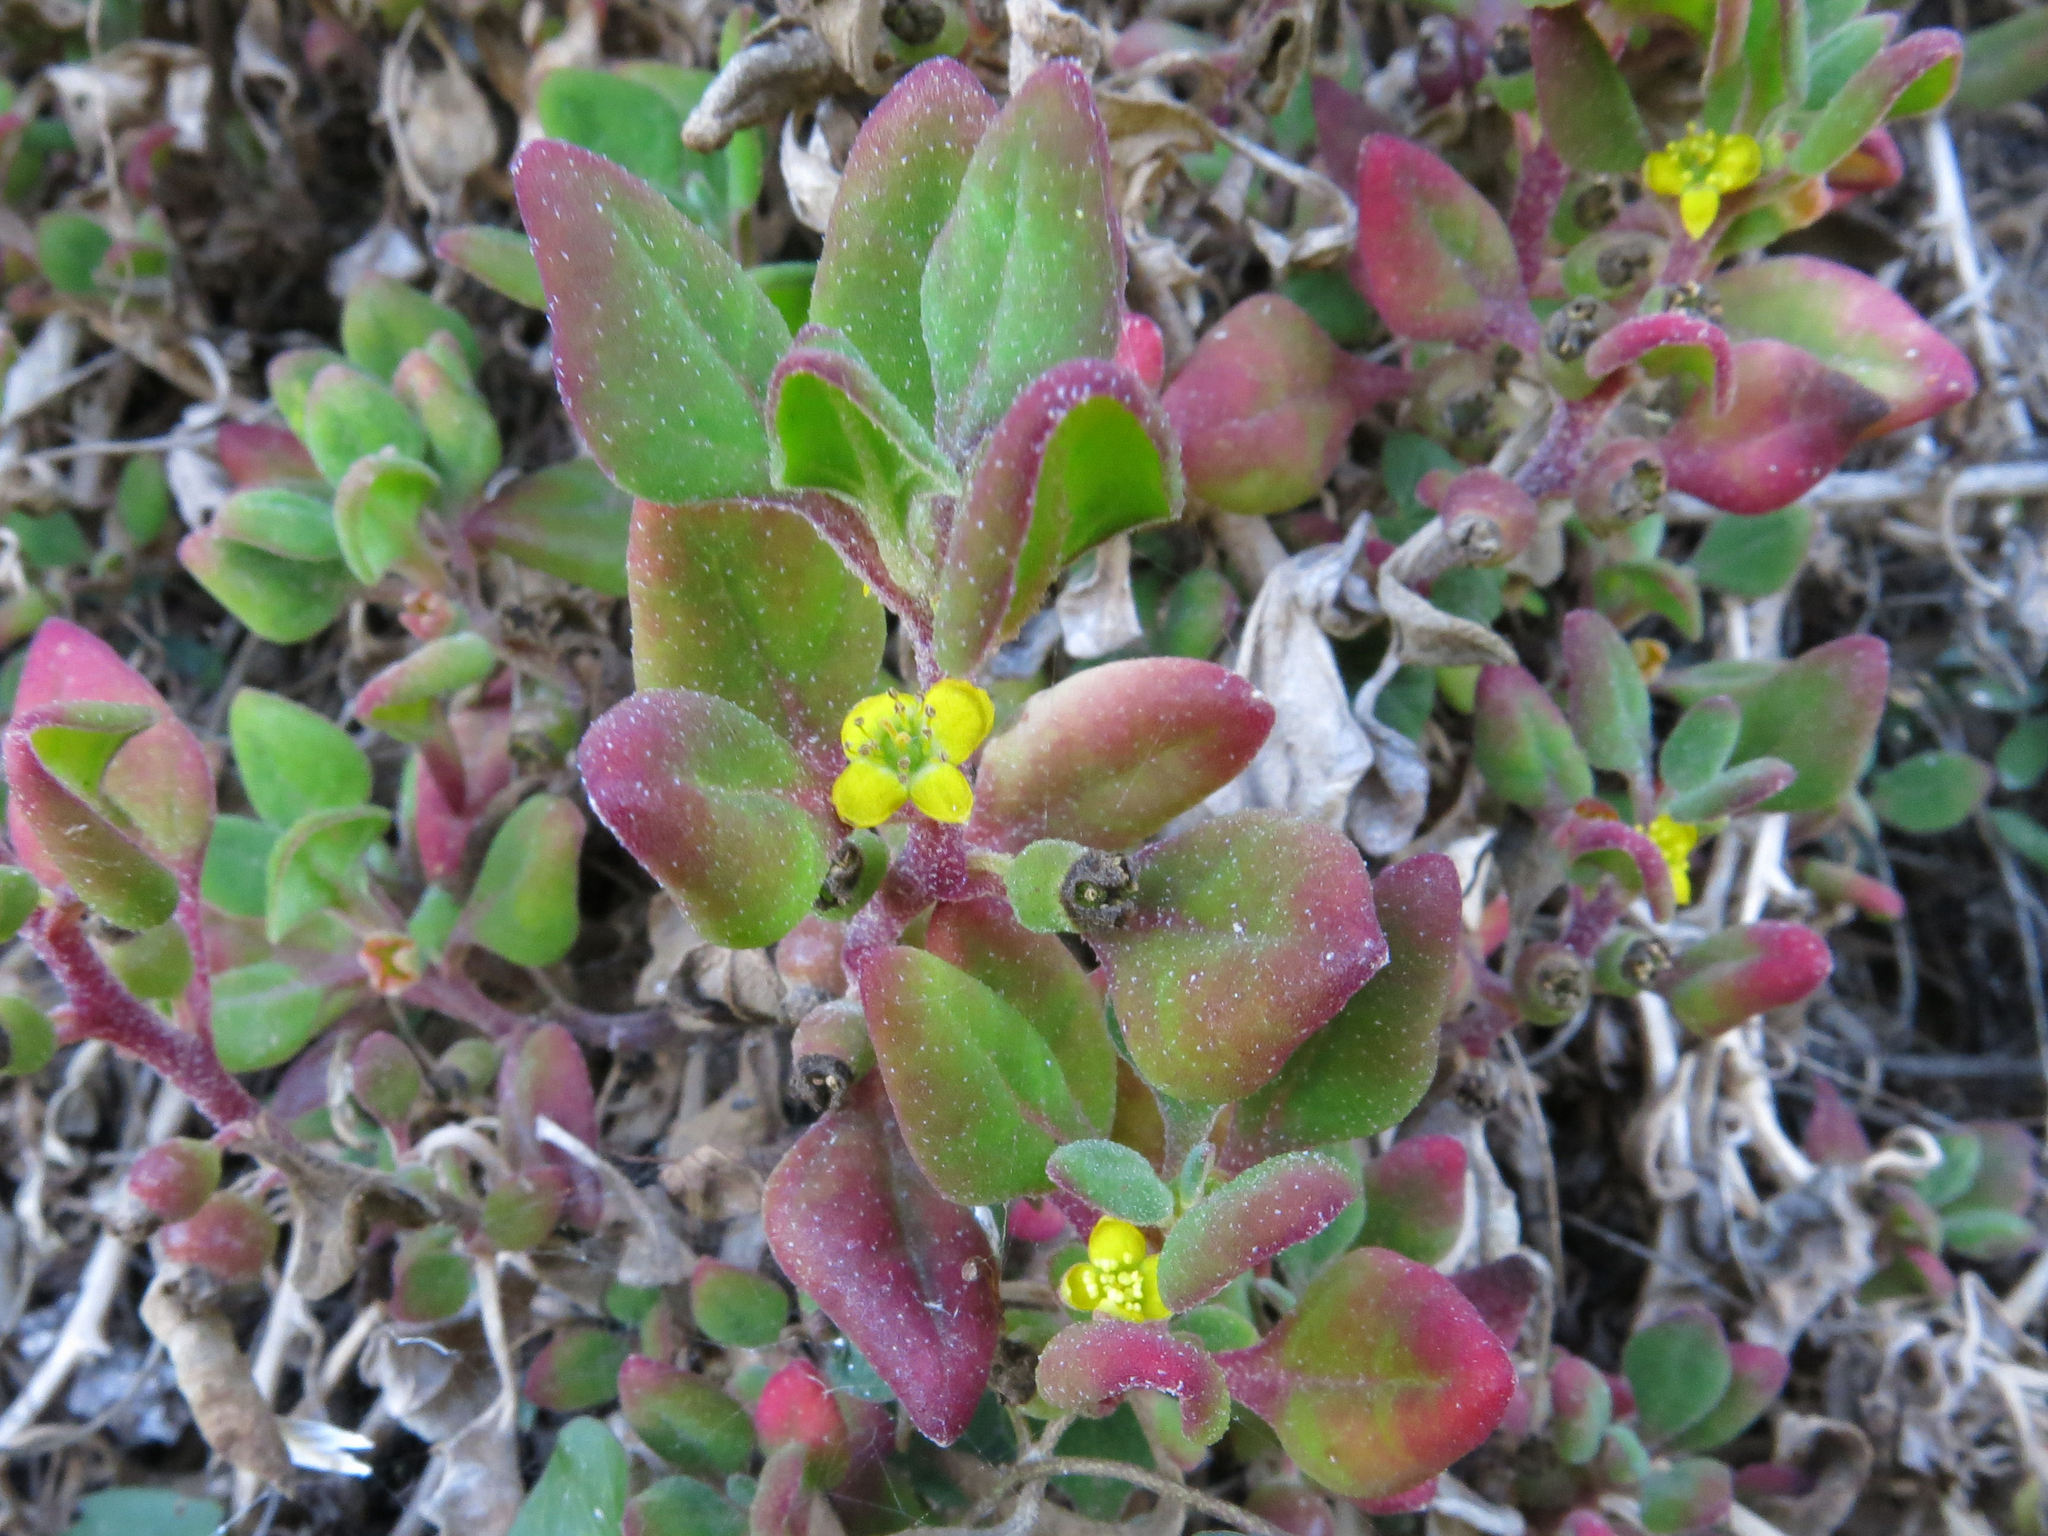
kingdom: Plantae
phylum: Tracheophyta
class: Magnoliopsida
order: Caryophyllales
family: Aizoaceae
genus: Tetragonia
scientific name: Tetragonia implexicoma
